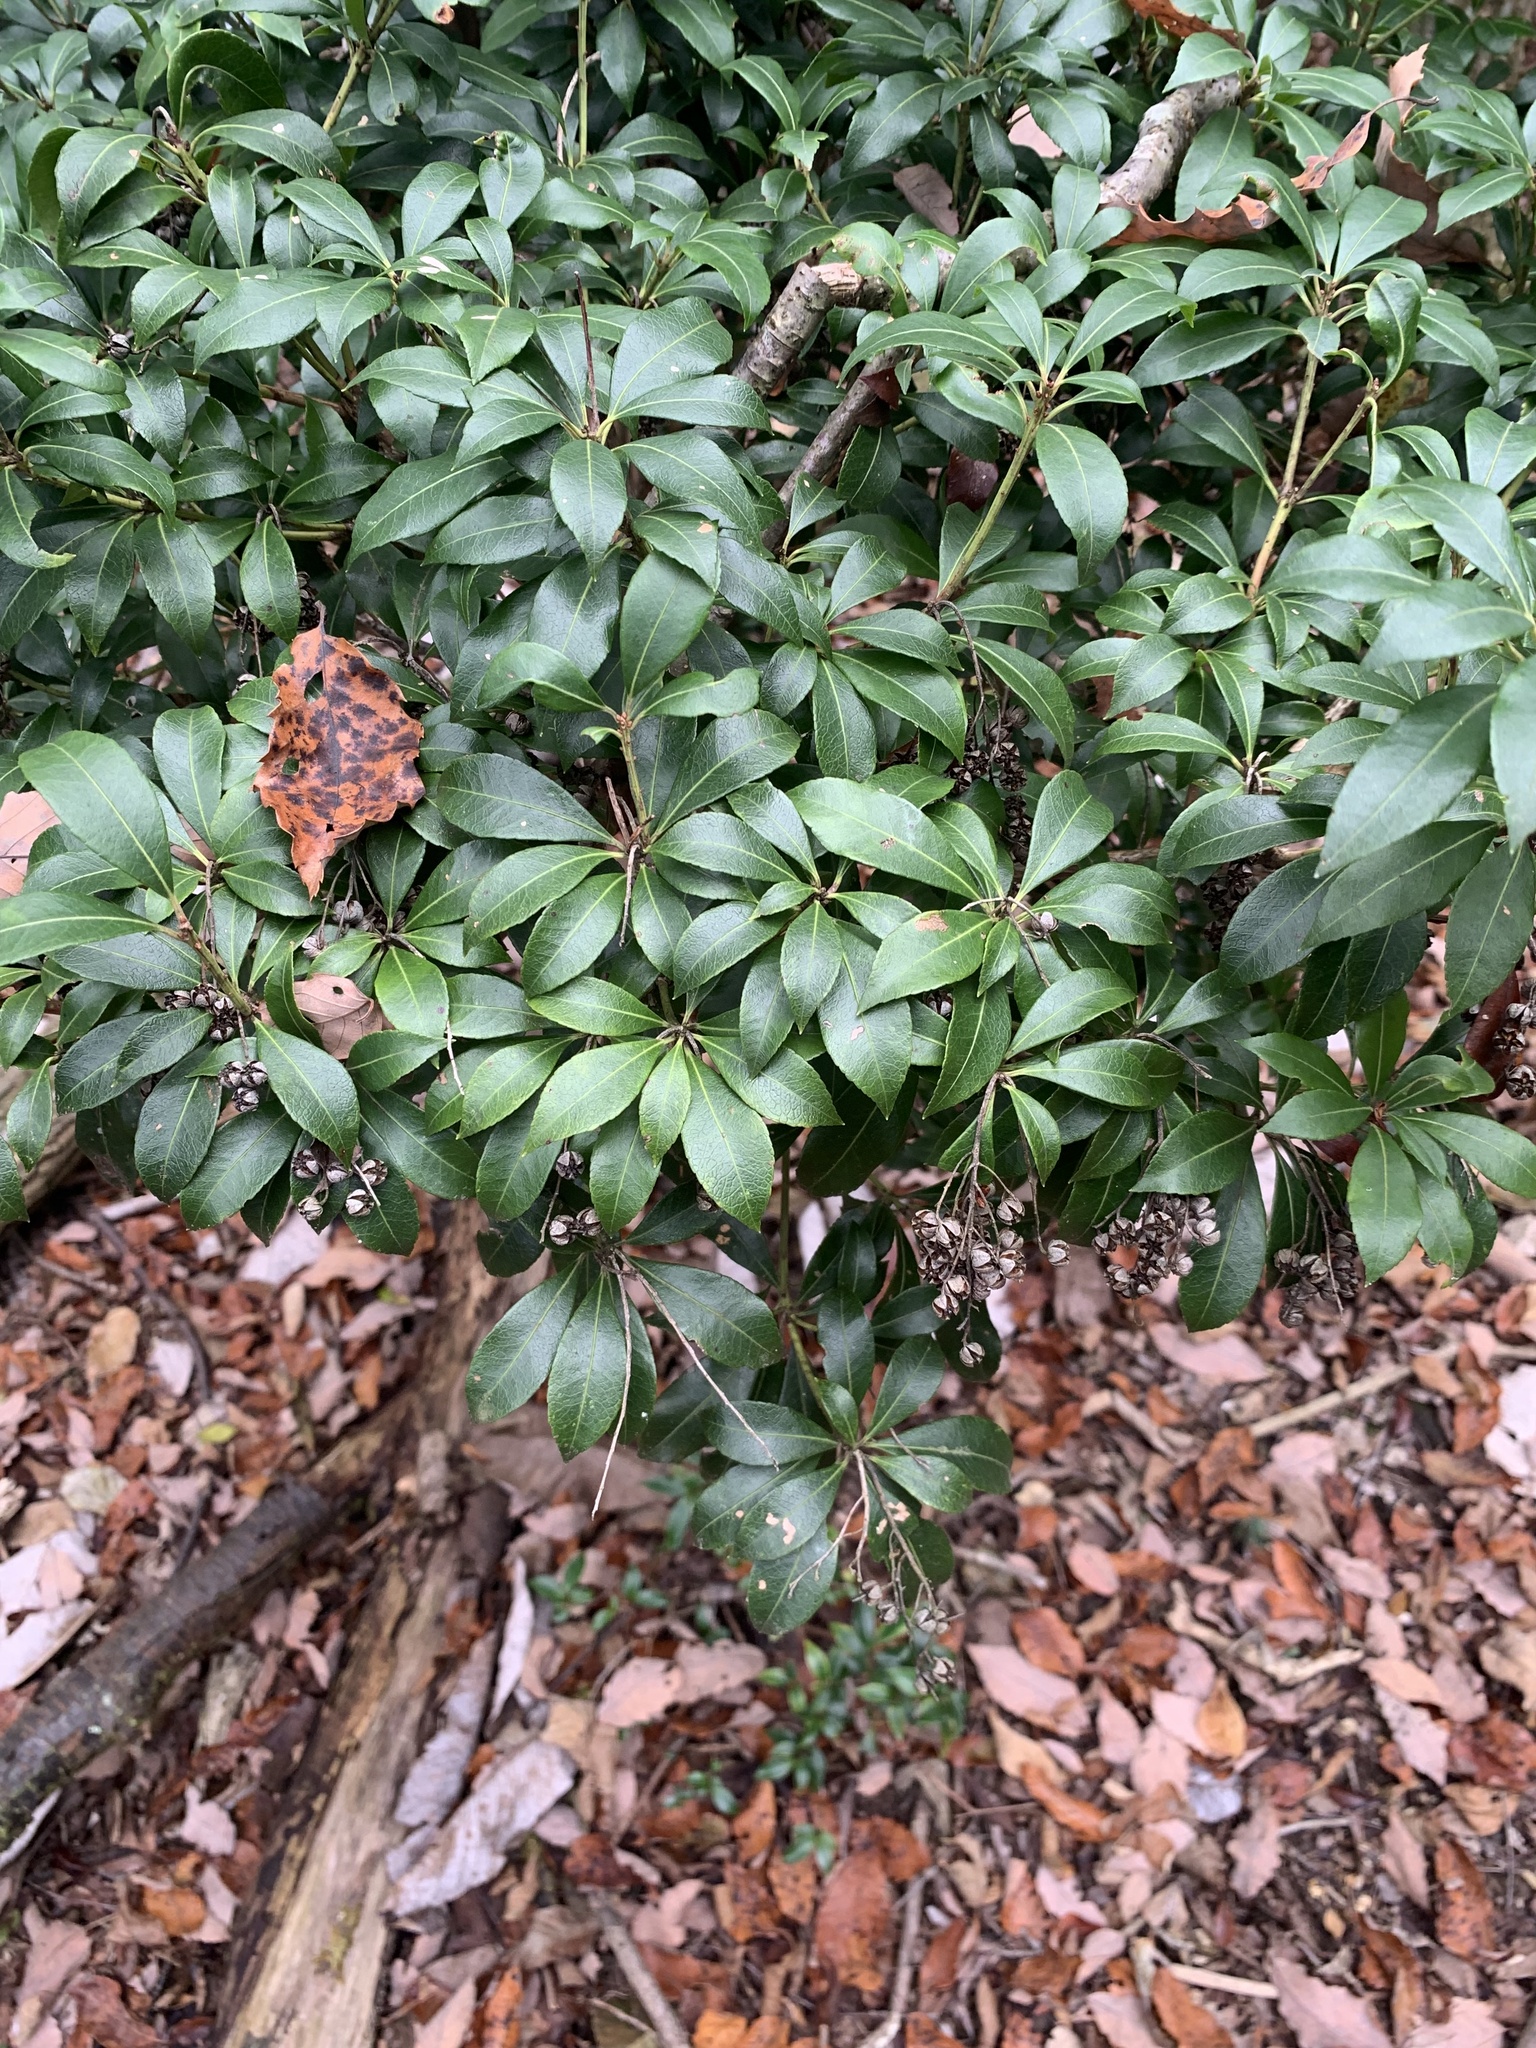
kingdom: Plantae
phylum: Tracheophyta
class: Magnoliopsida
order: Ericales
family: Ericaceae
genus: Pieris
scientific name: Pieris japonica
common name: Japanese pieris
